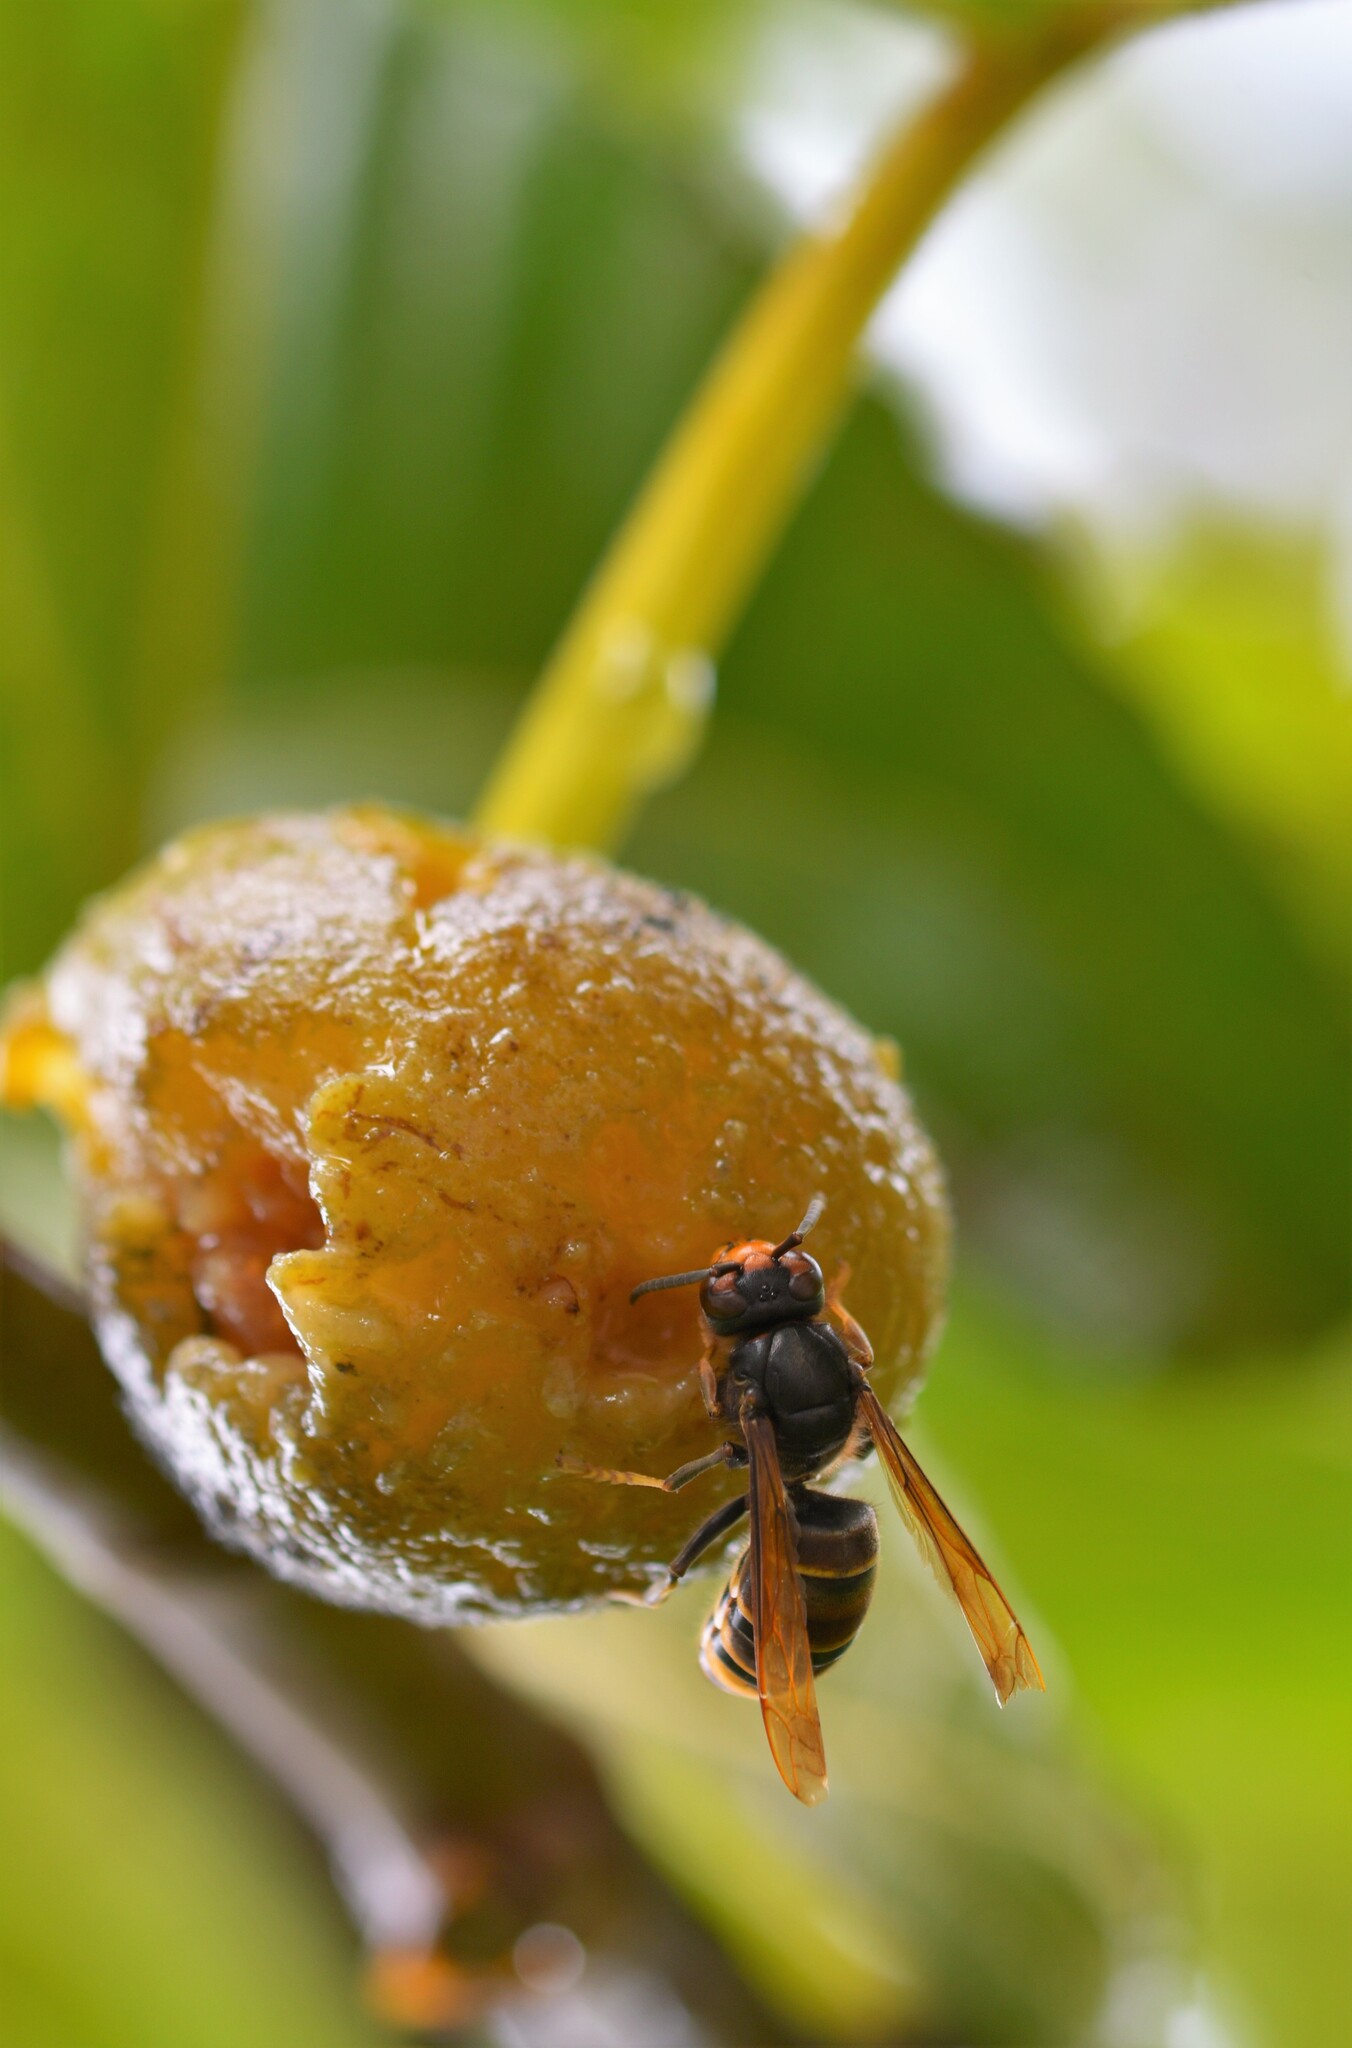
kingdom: Animalia
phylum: Arthropoda
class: Insecta
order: Hymenoptera
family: Vespidae
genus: Vespa
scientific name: Vespa velutina
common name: Asian hornet
